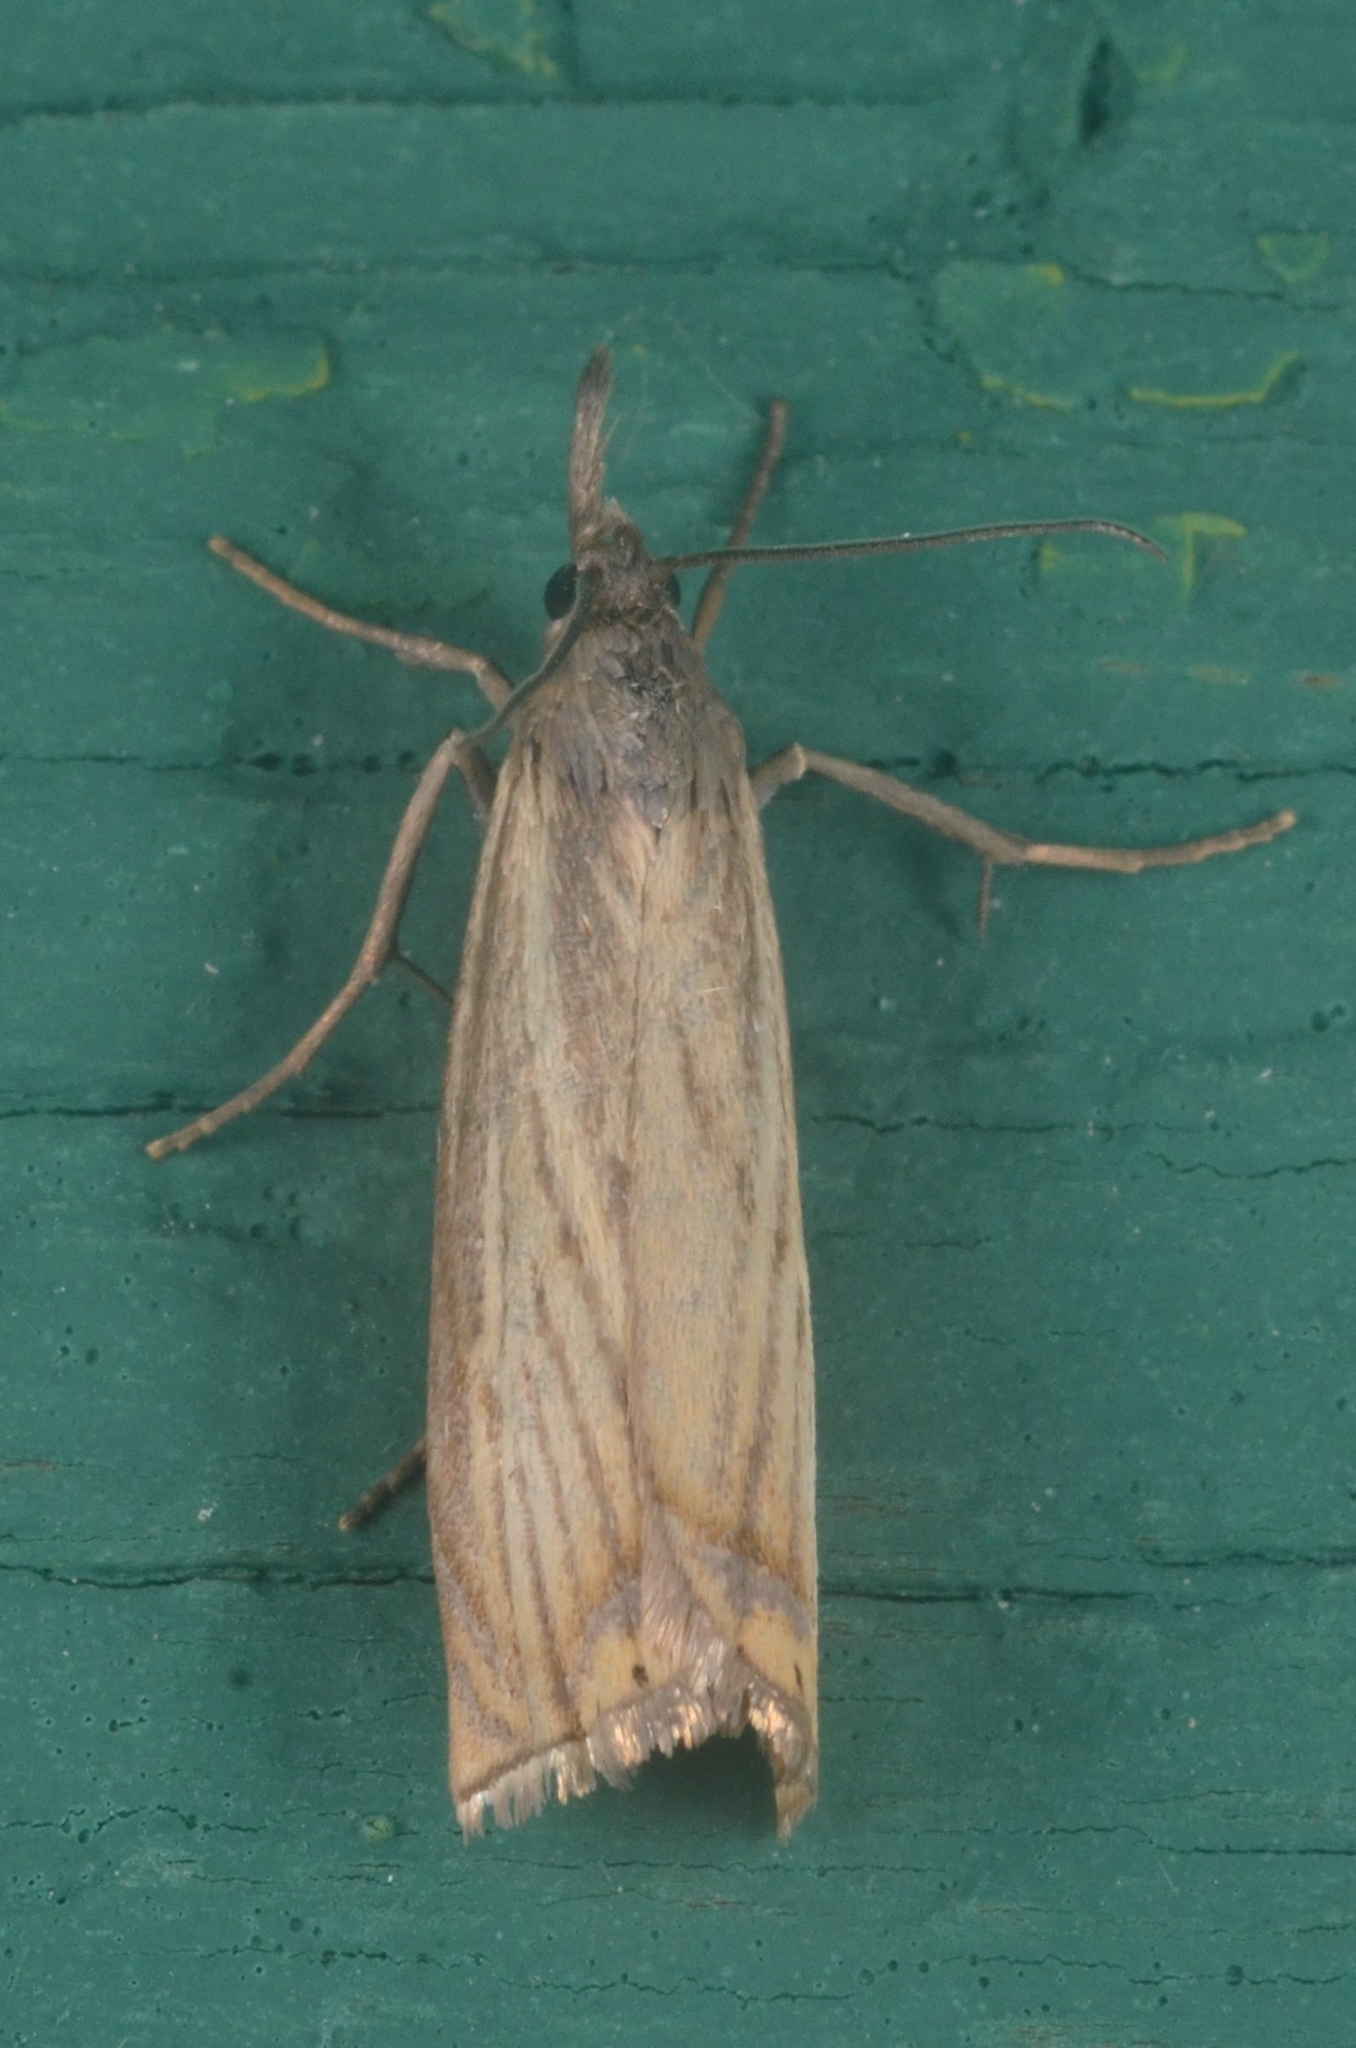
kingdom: Animalia
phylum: Arthropoda
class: Insecta
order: Lepidoptera
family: Crambidae
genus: Chrysoteuchia
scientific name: Chrysoteuchia culmella
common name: Garden grass-veneer
